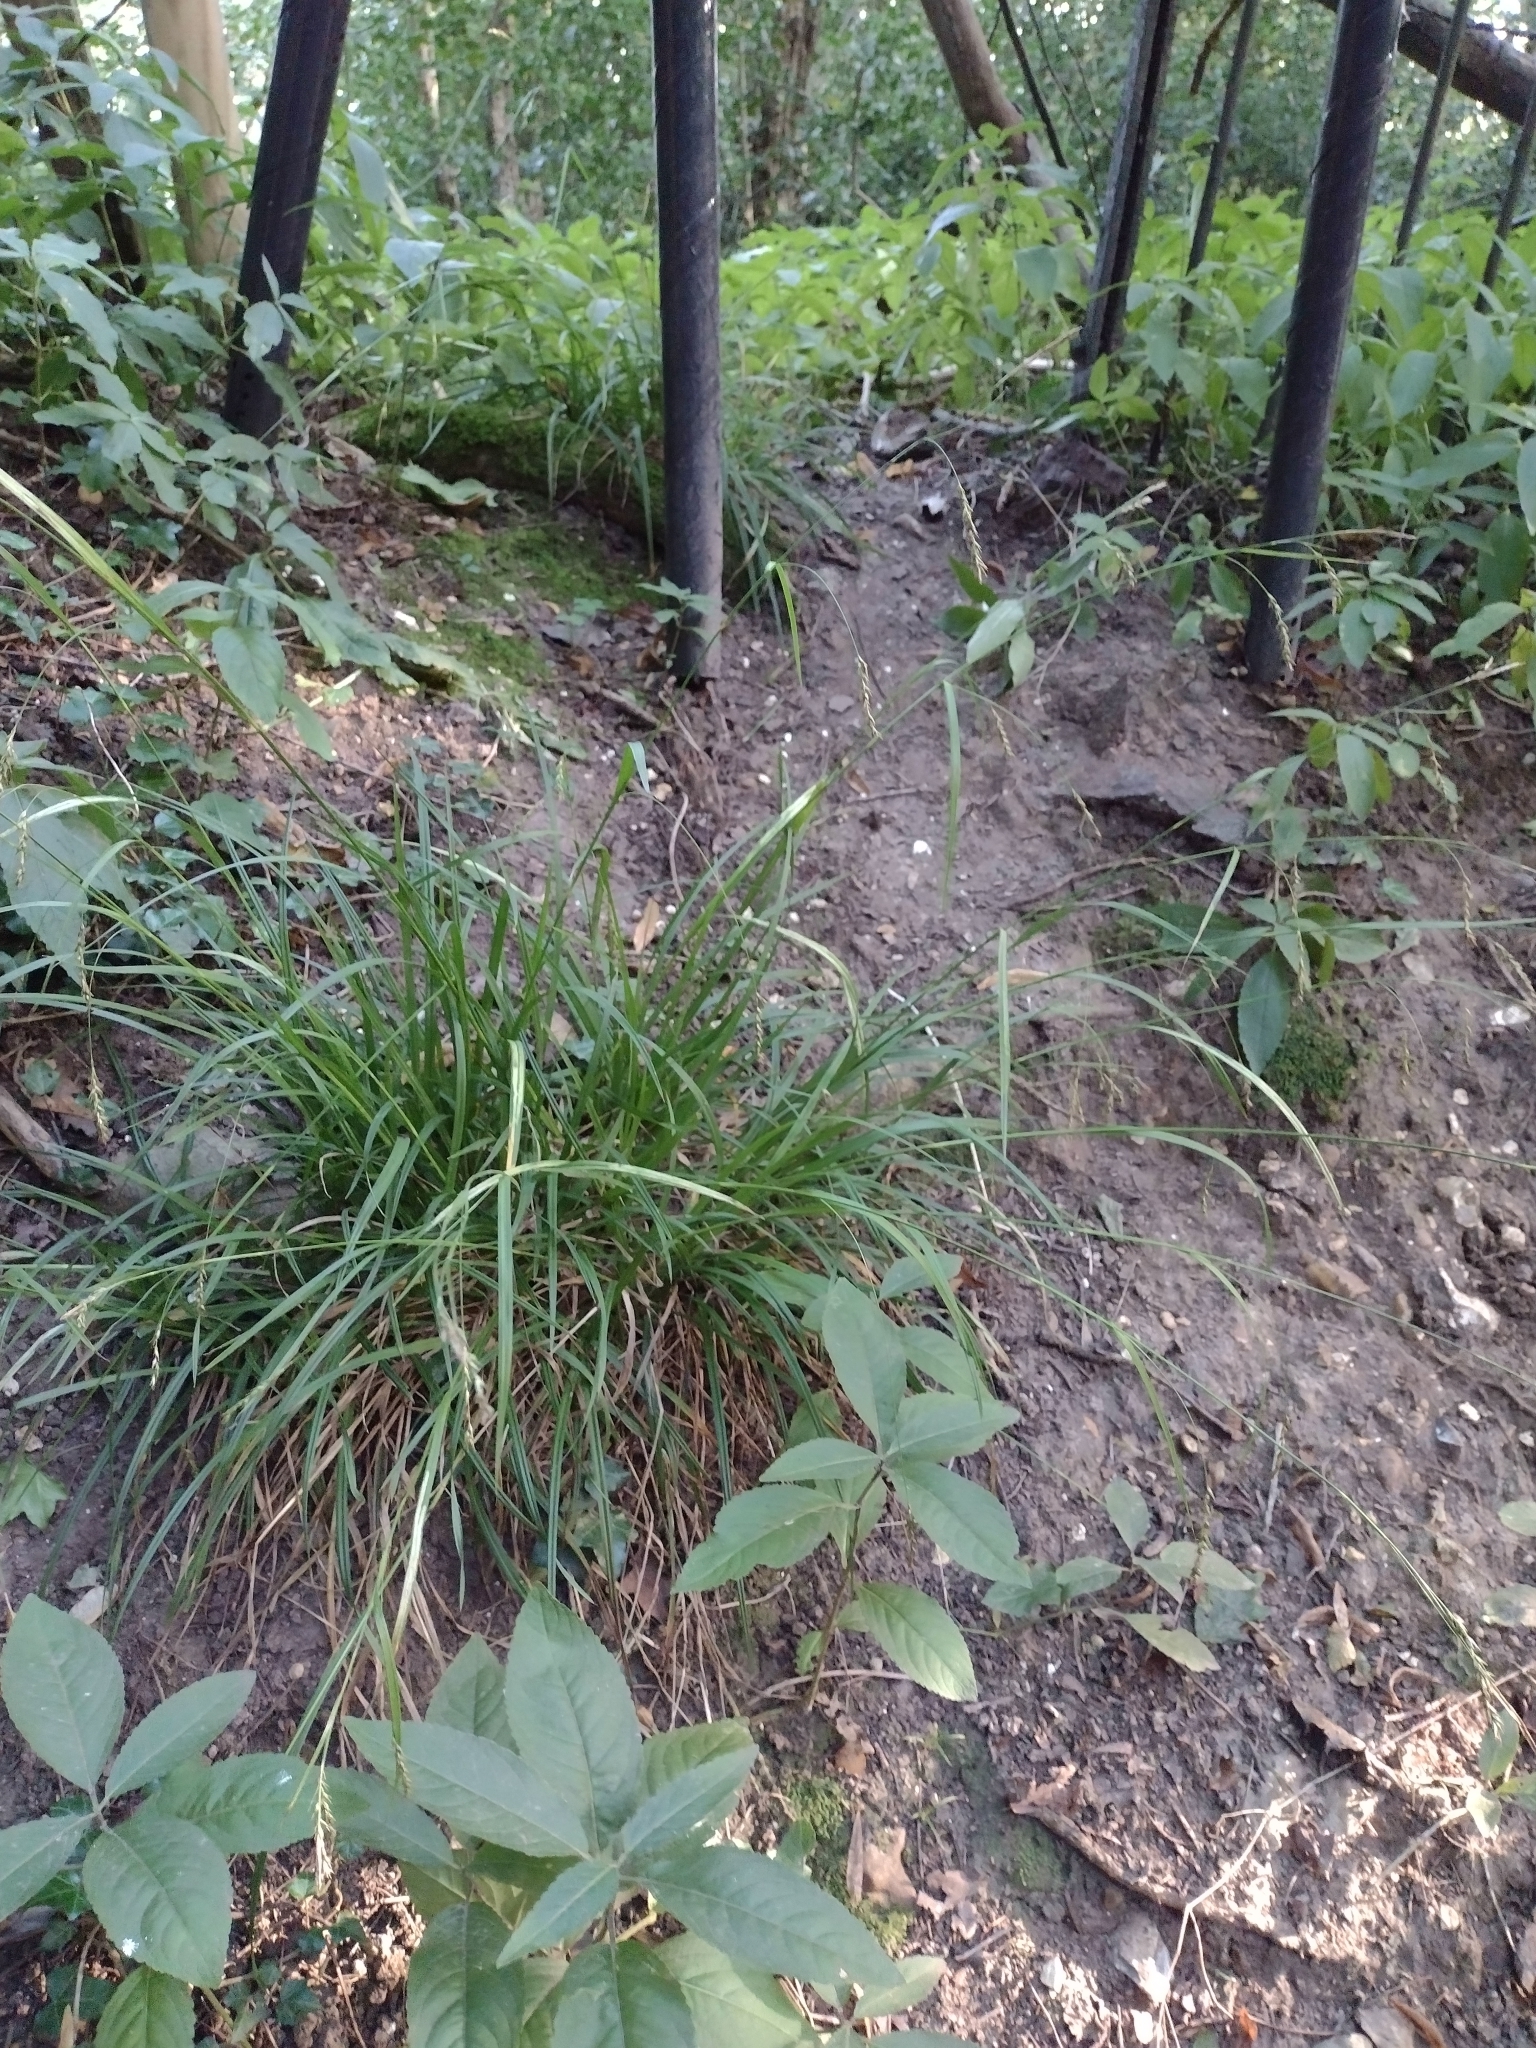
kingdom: Plantae
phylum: Tracheophyta
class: Liliopsida
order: Poales
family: Cyperaceae
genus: Carex
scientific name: Carex sylvatica
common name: Wood-sedge
